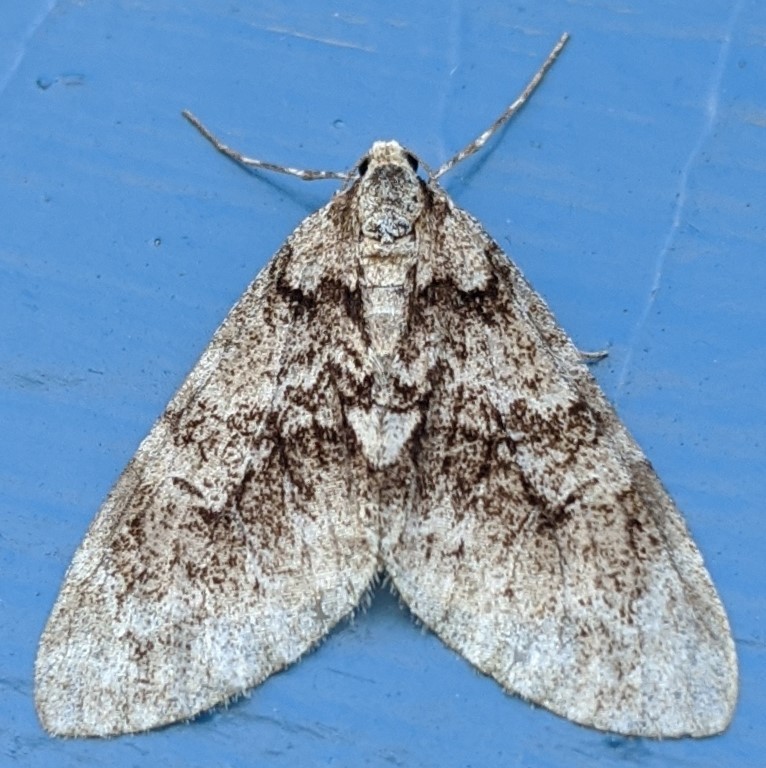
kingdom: Animalia
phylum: Arthropoda
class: Insecta
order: Lepidoptera
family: Geometridae
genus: Cladara
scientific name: Cladara limitaria
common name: Mottled gray carpet
